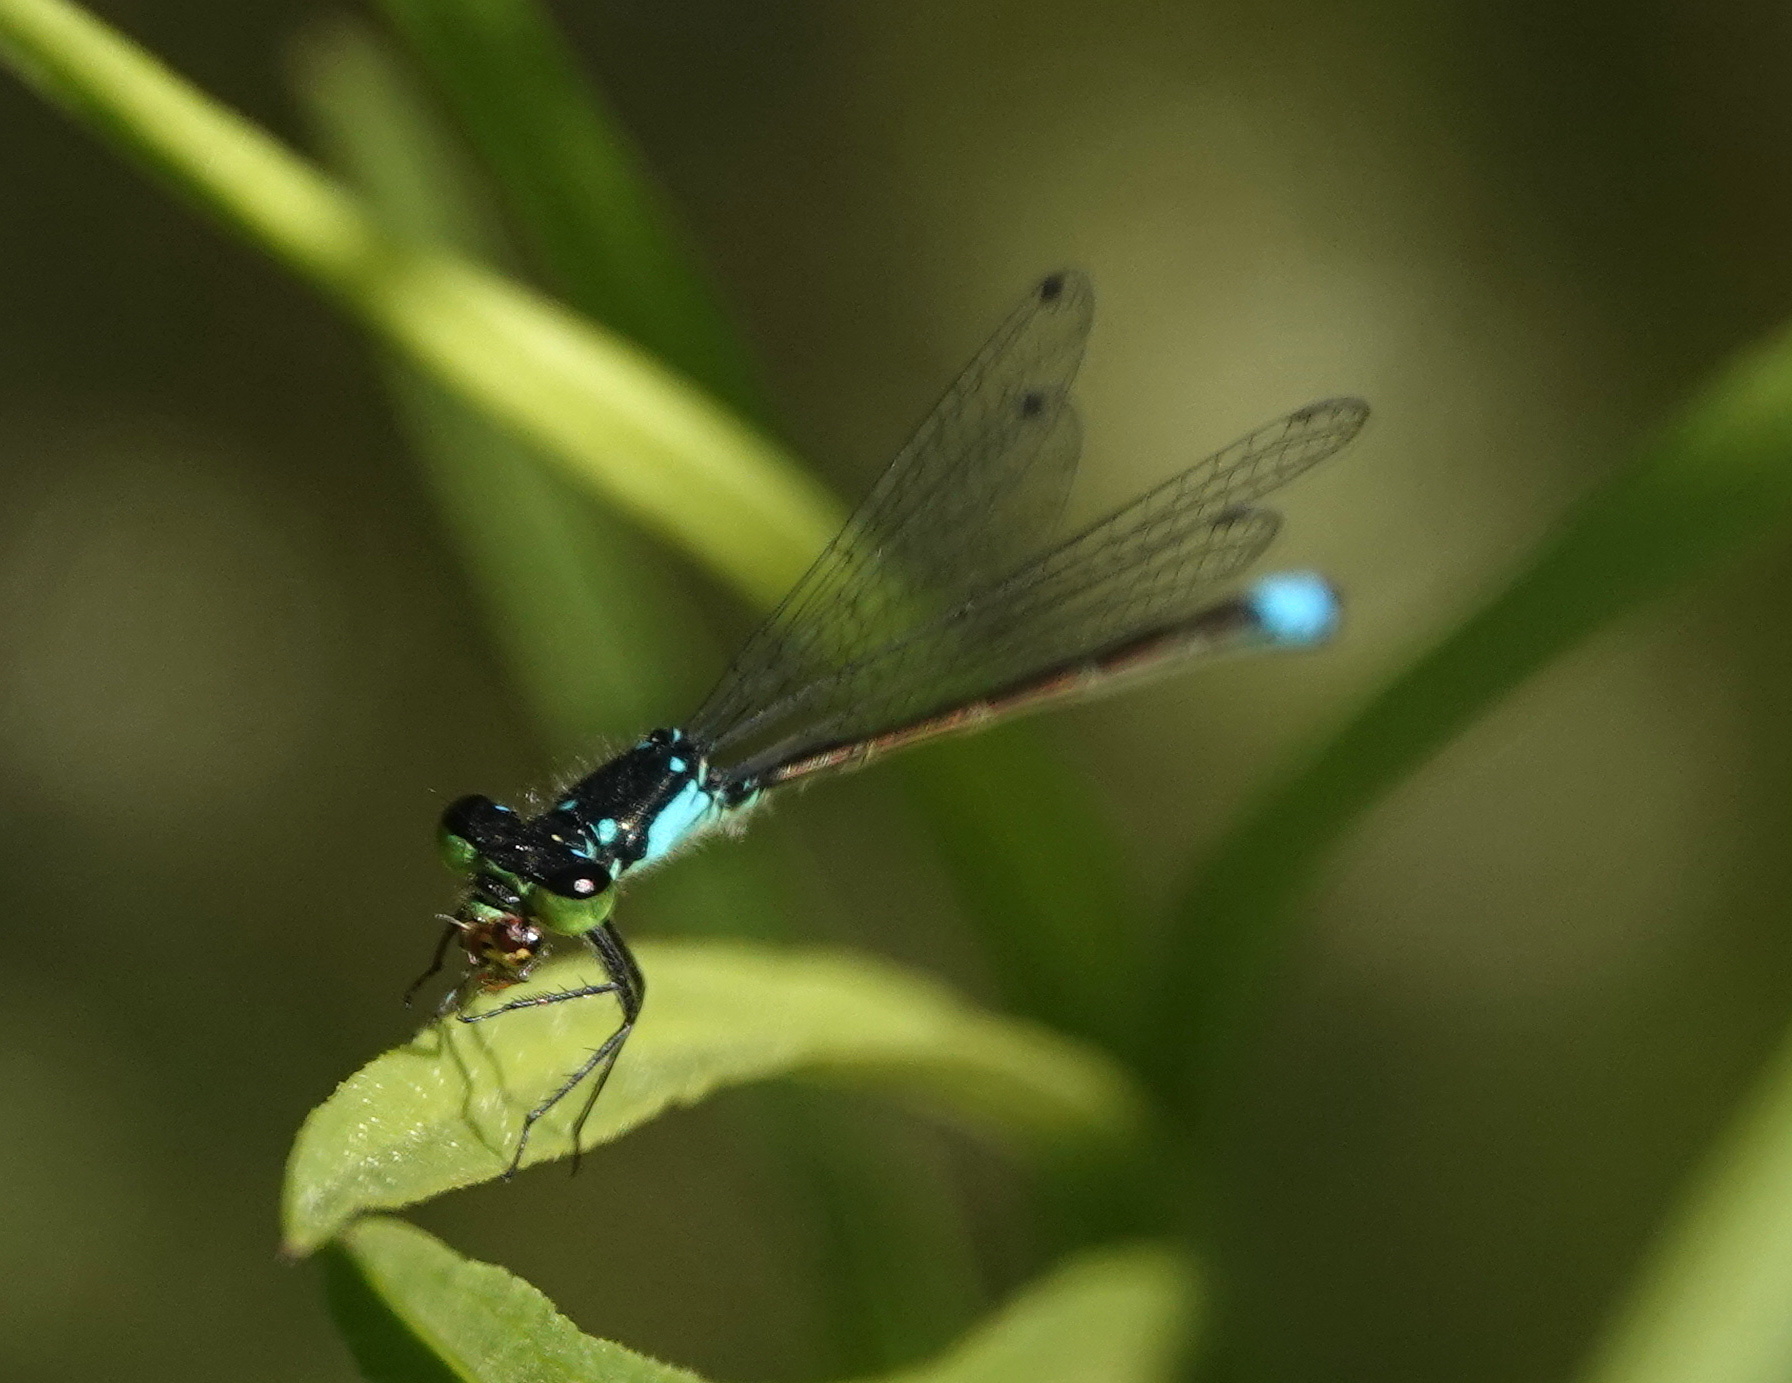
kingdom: Animalia
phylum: Arthropoda
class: Insecta
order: Odonata
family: Coenagrionidae
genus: Ischnura
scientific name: Ischnura cervula
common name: Pacific forktail
